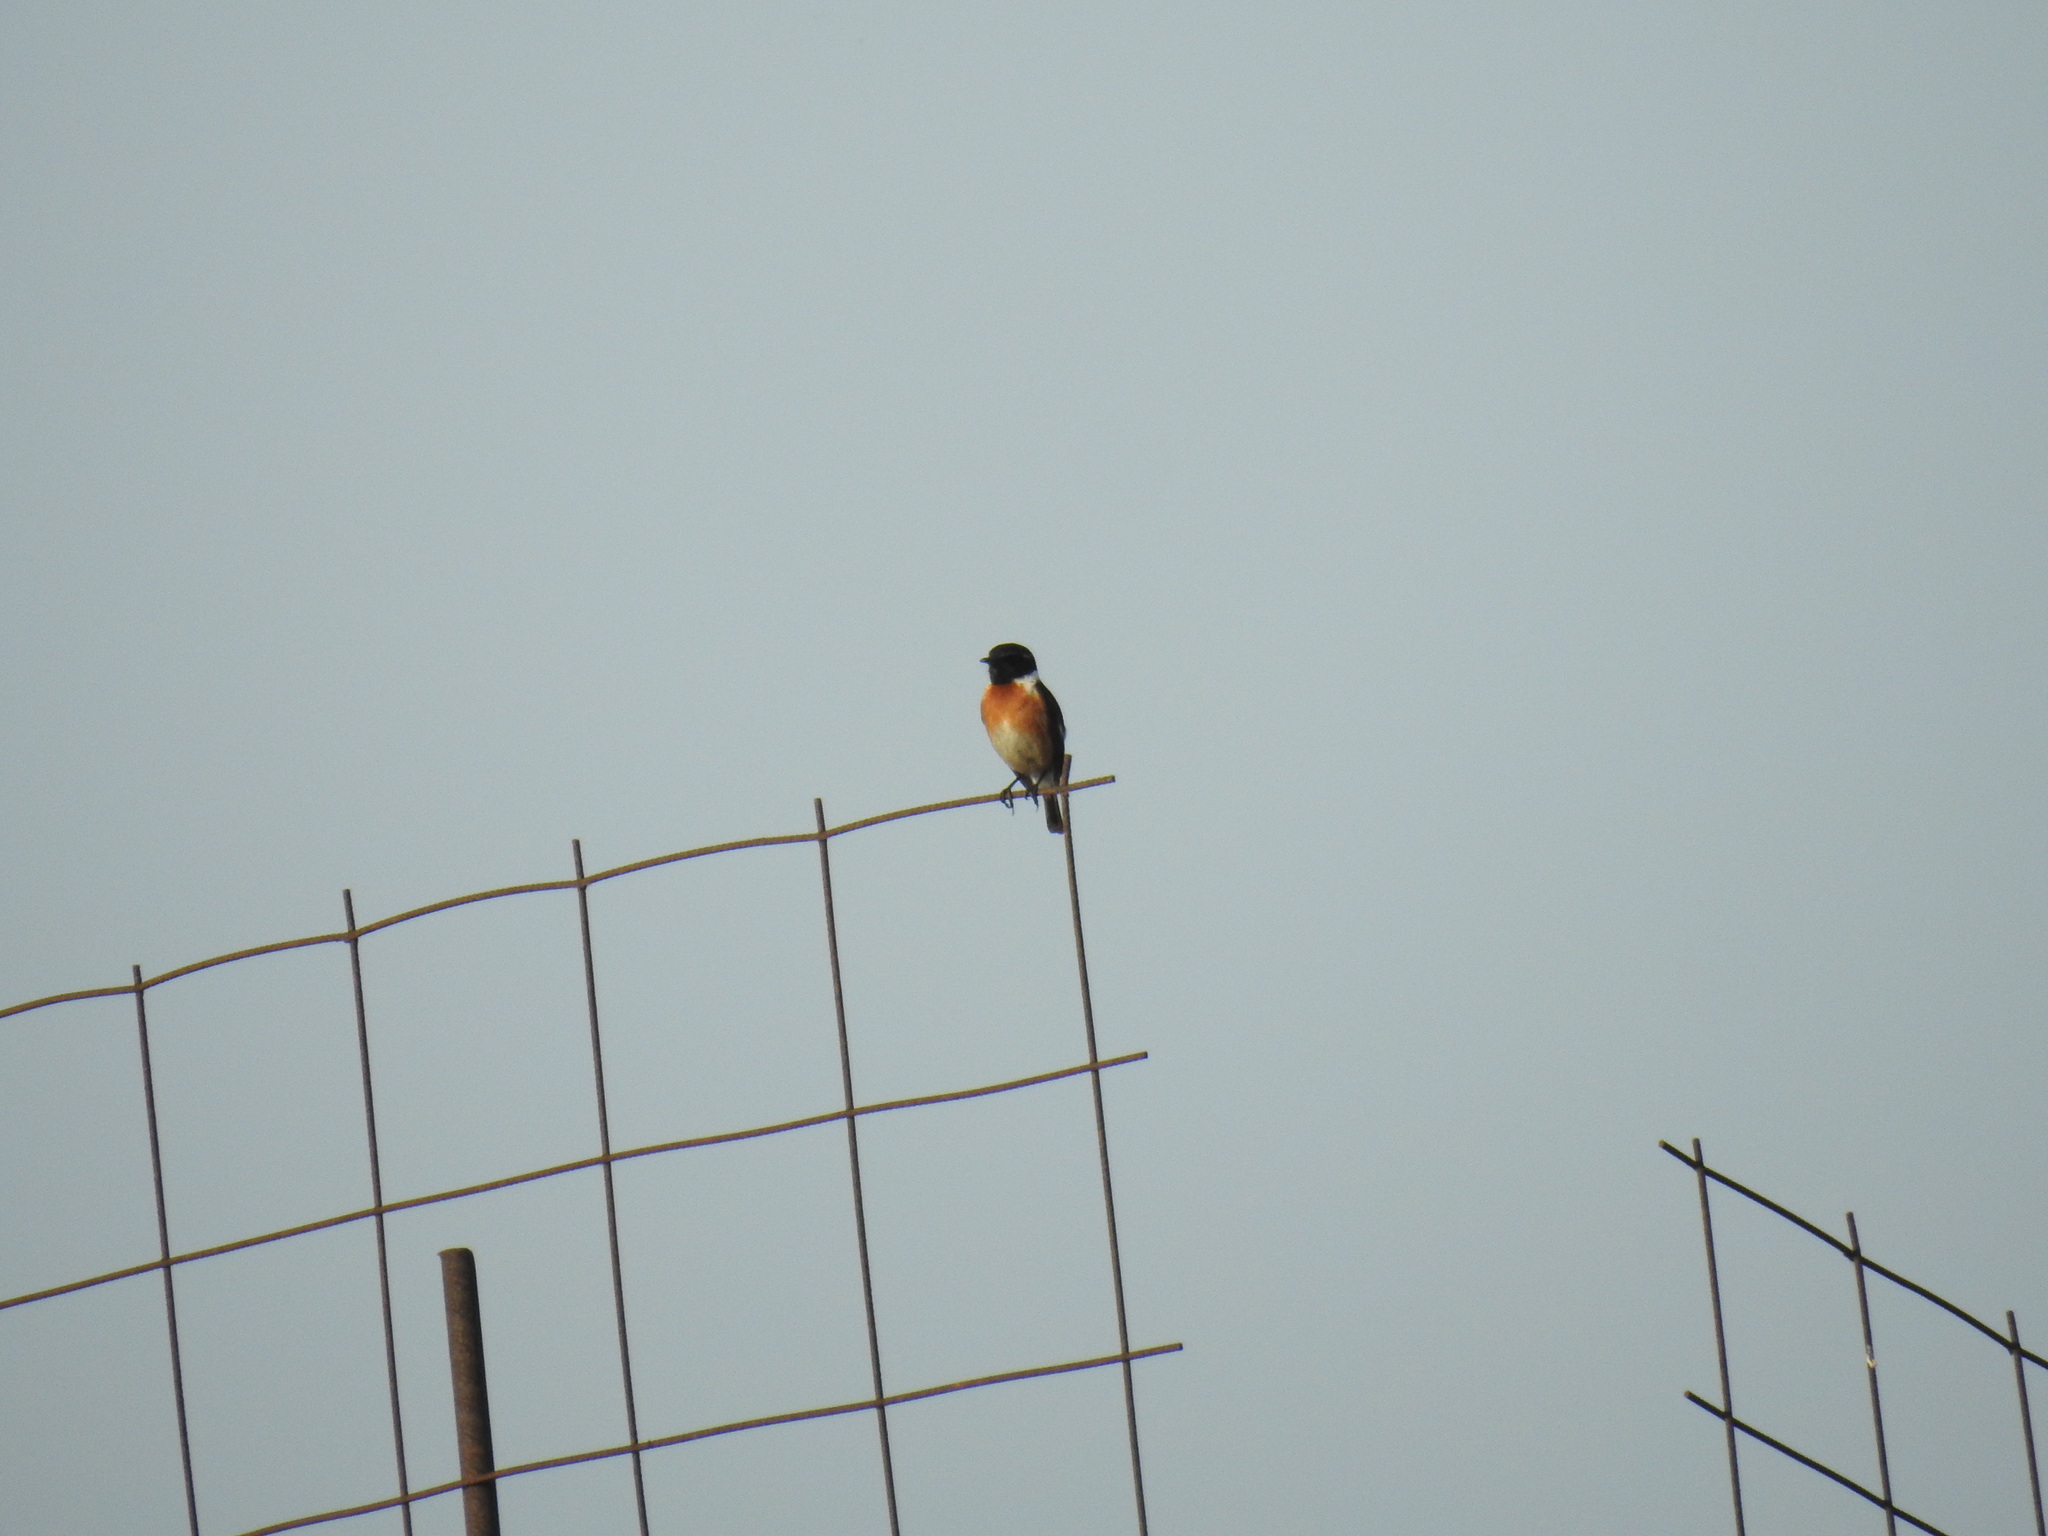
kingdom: Animalia
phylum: Chordata
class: Aves
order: Passeriformes
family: Muscicapidae
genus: Saxicola
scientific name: Saxicola rubicola
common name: European stonechat
